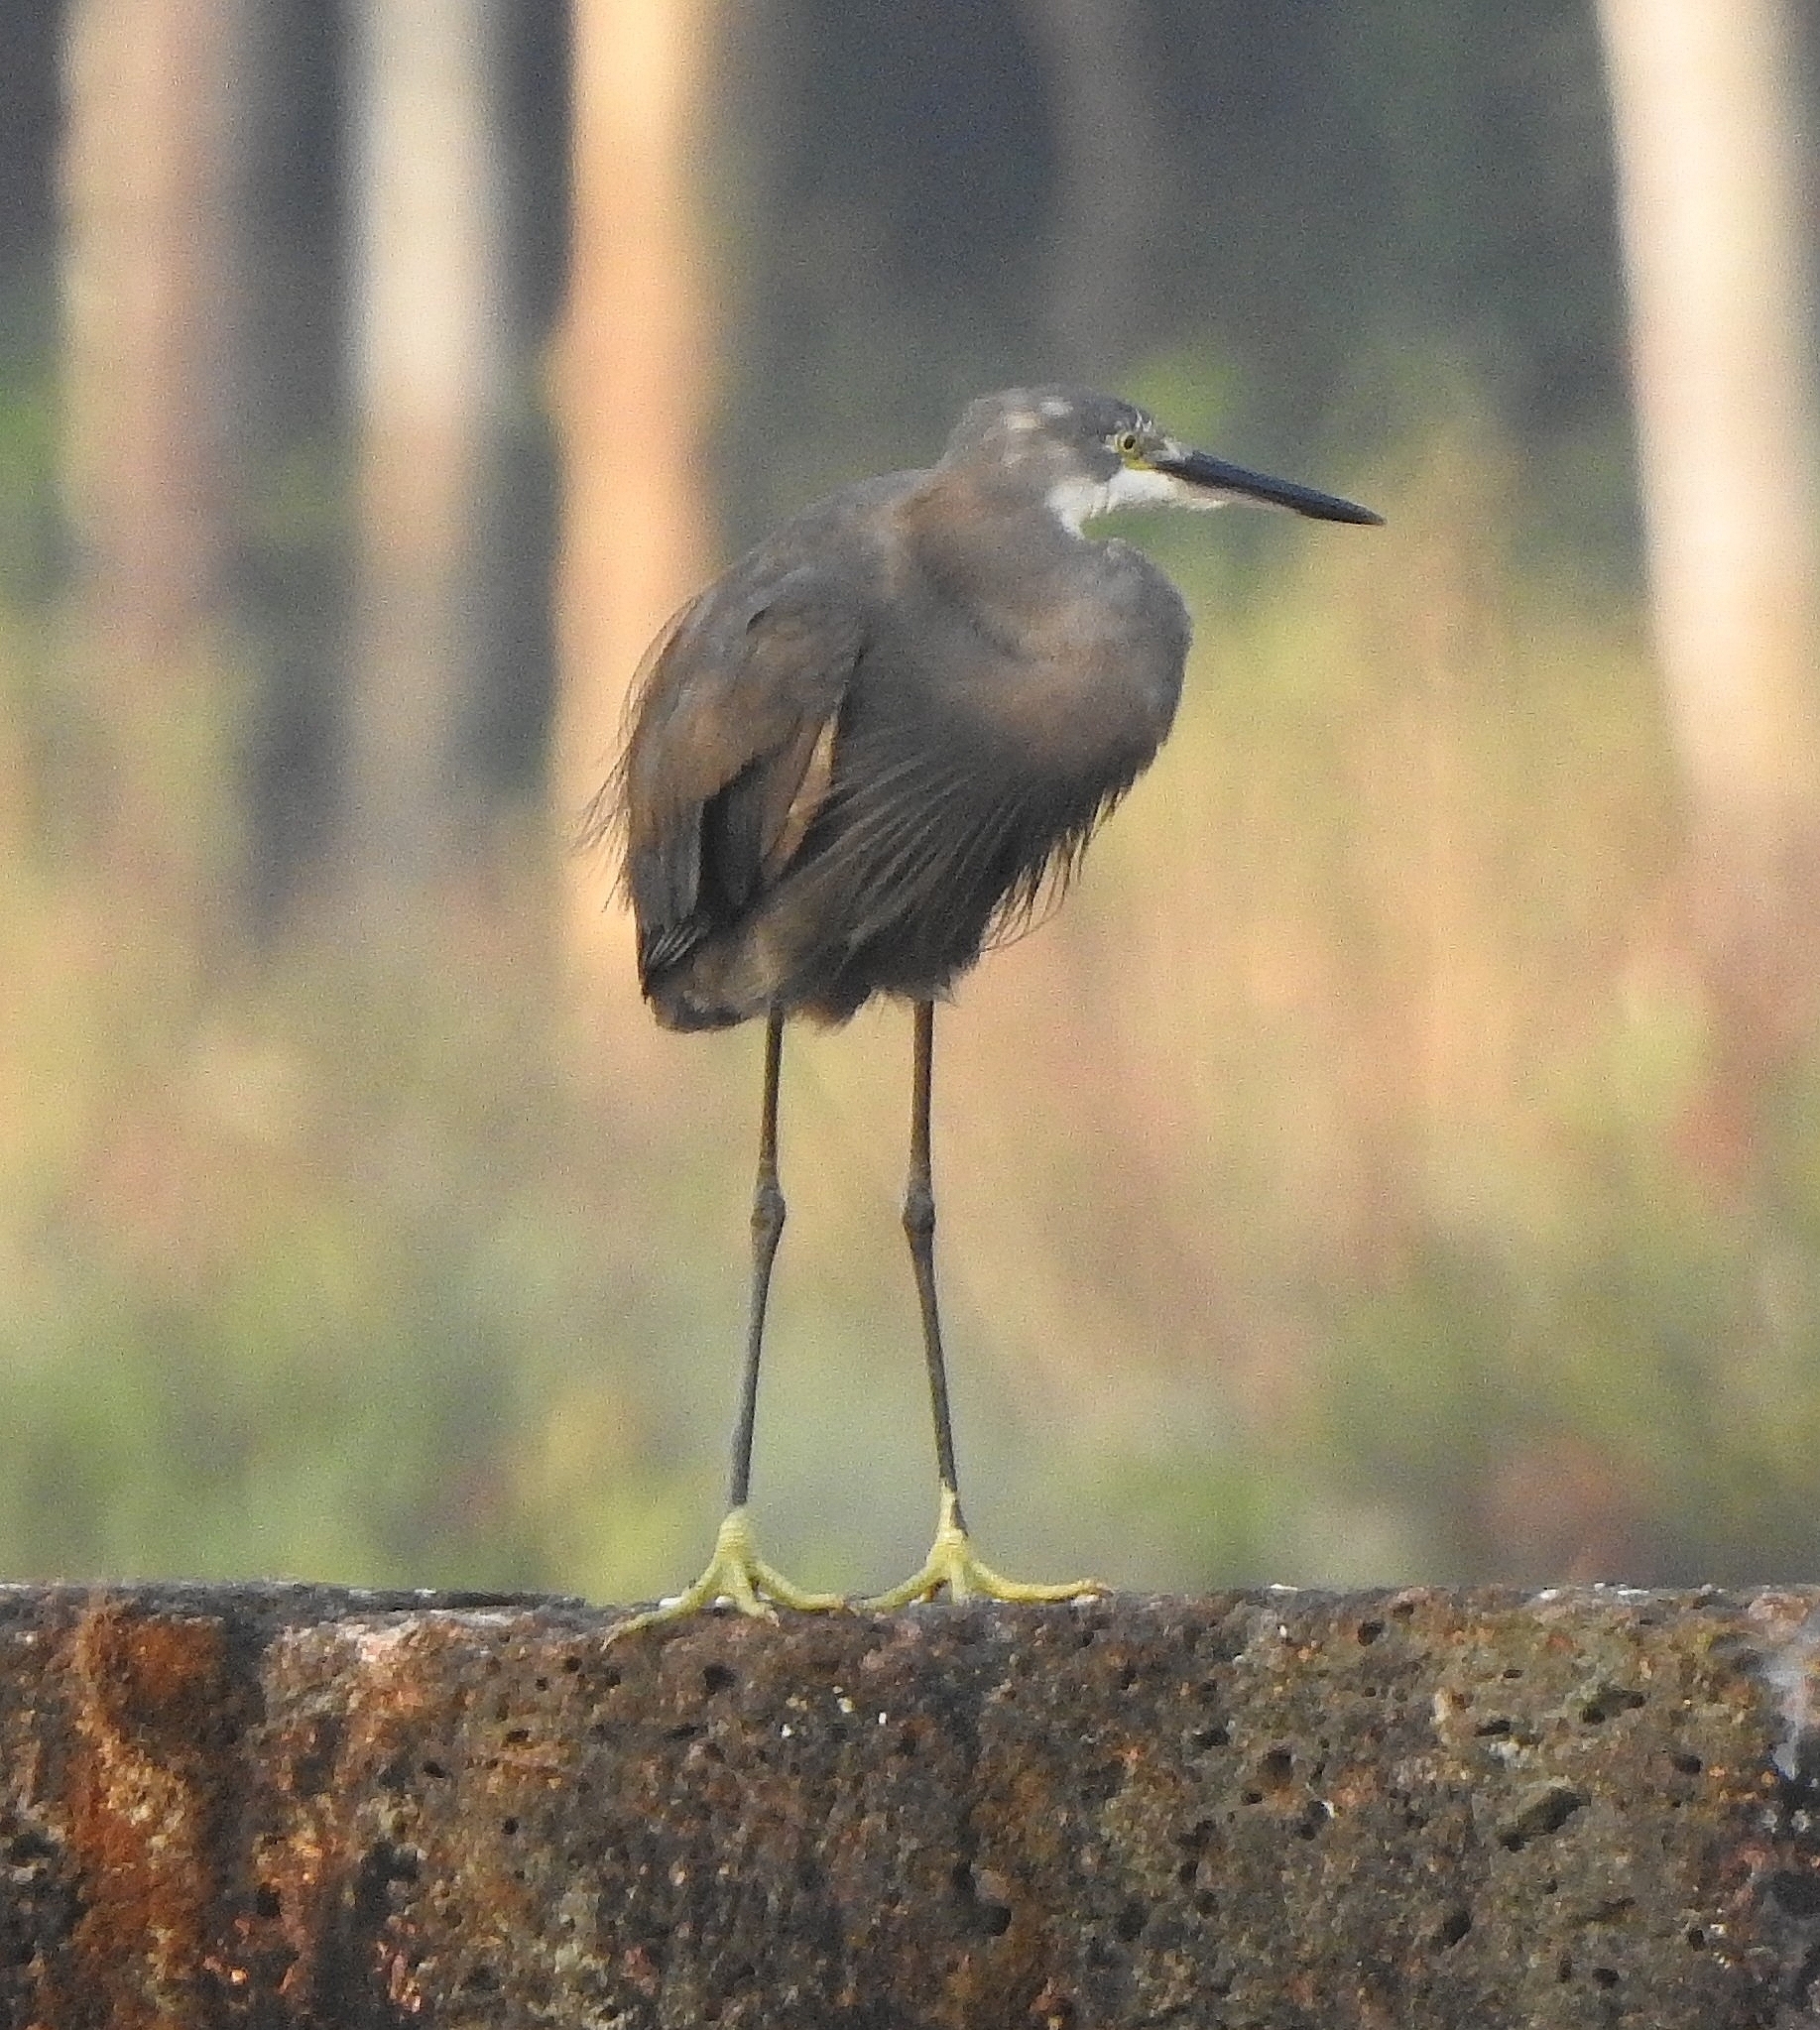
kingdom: Animalia
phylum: Chordata
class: Aves
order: Pelecaniformes
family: Ardeidae
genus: Egretta
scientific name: Egretta garzetta
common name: Little egret
